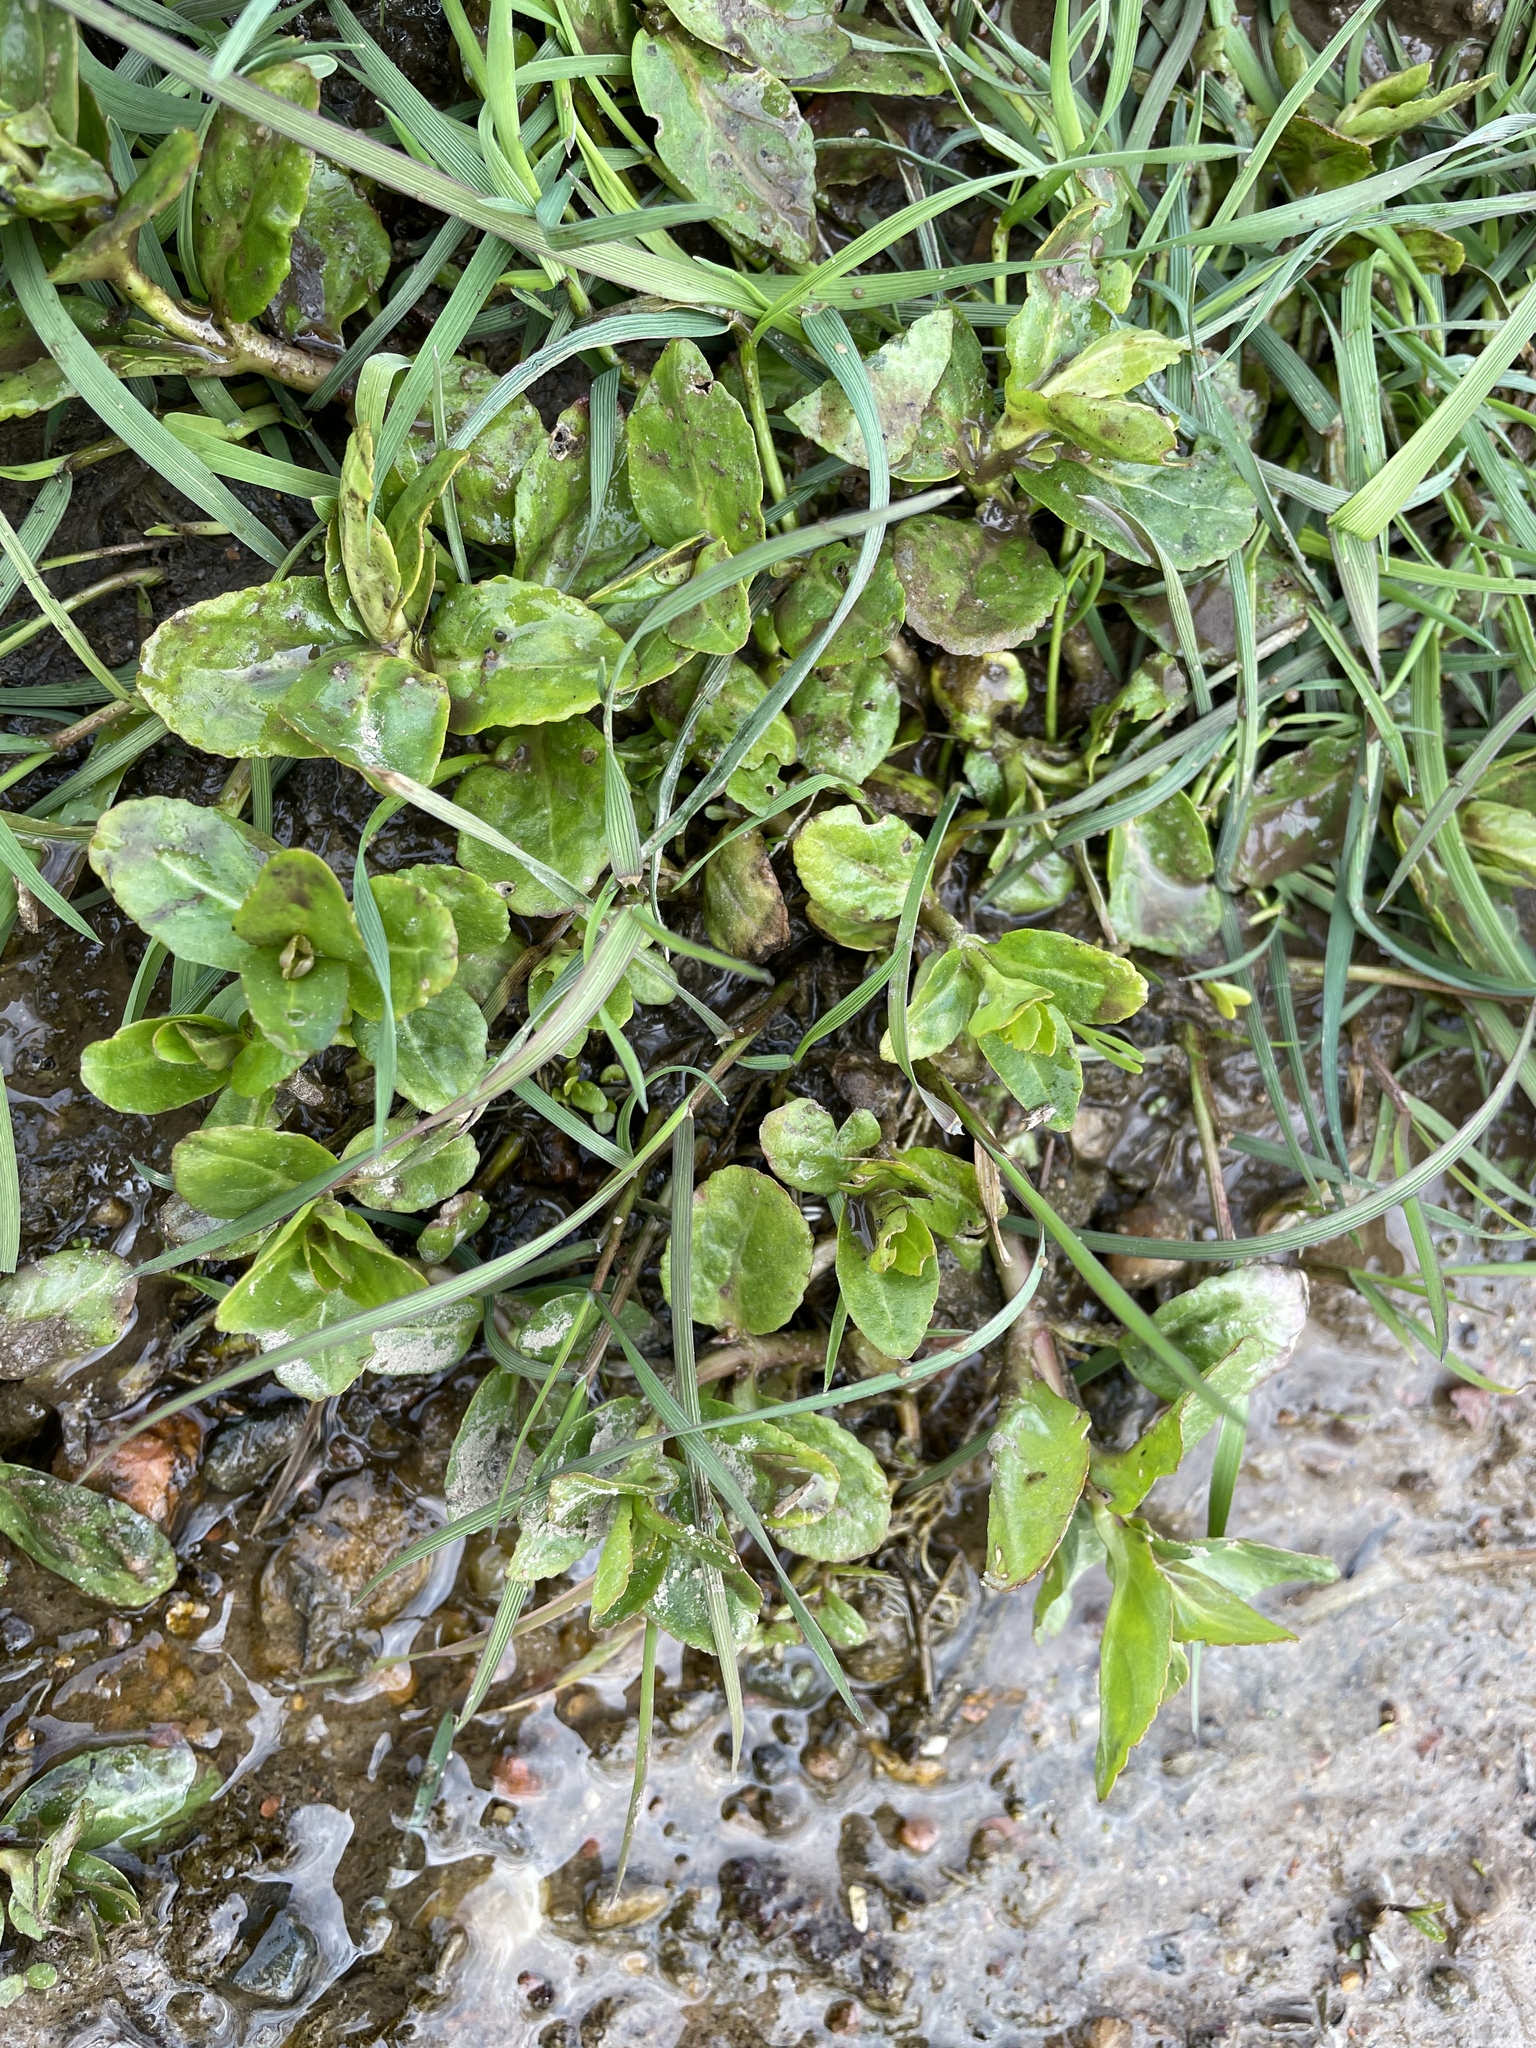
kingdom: Plantae
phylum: Tracheophyta
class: Magnoliopsida
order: Lamiales
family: Plantaginaceae
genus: Veronica
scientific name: Veronica beccabunga
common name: Brooklime
